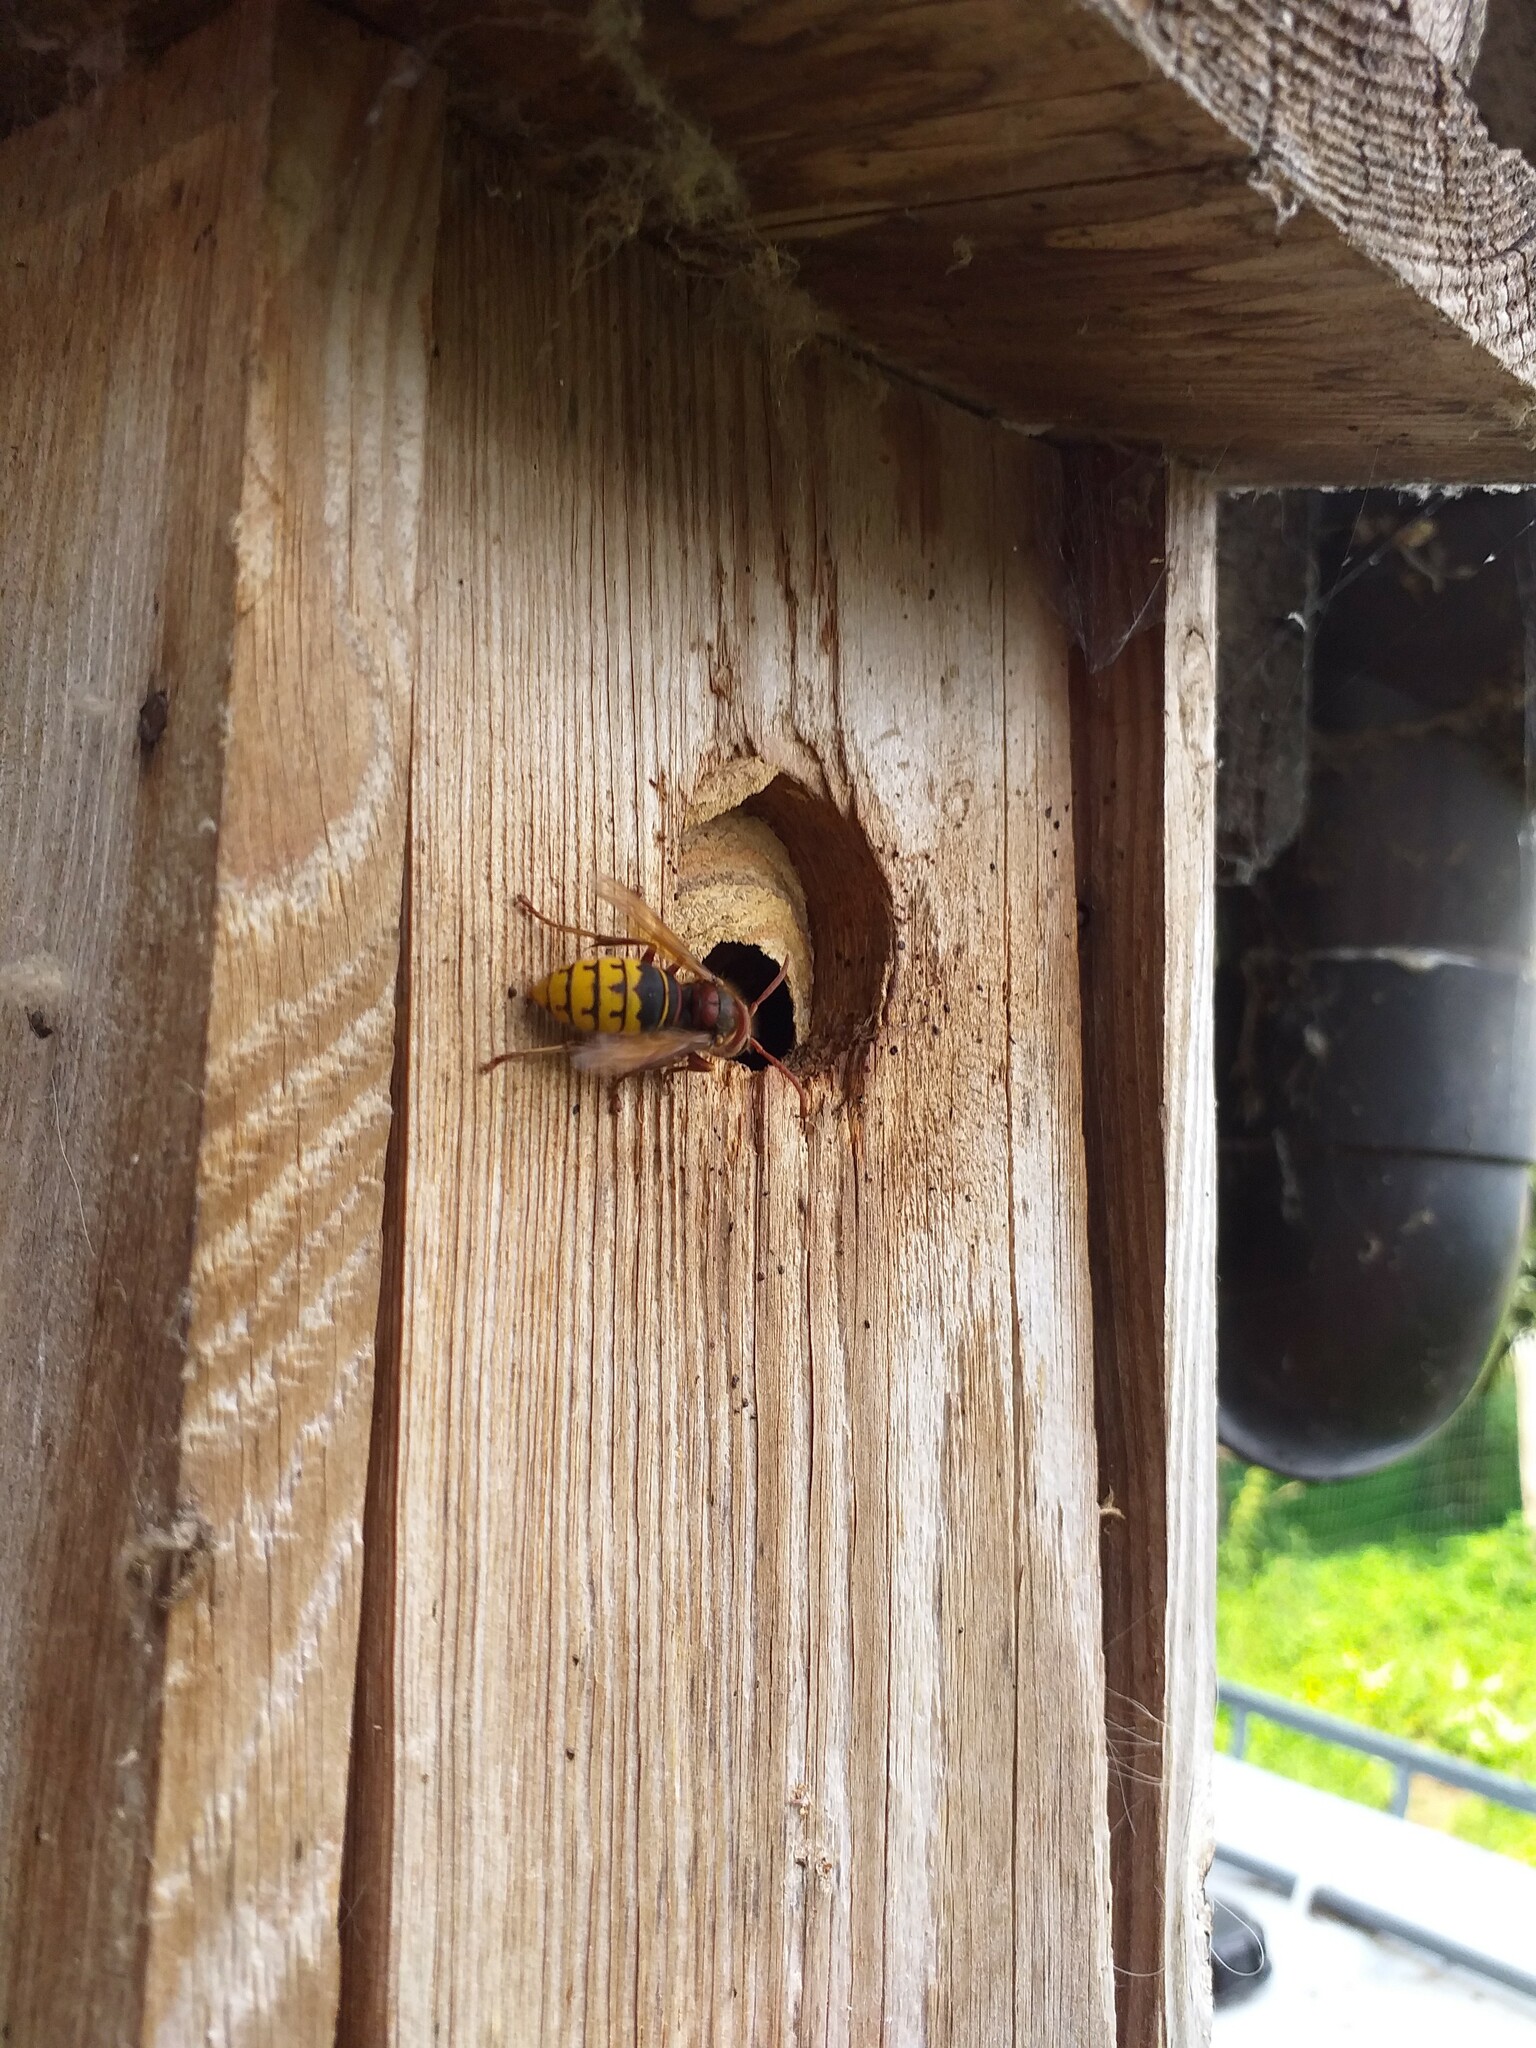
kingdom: Animalia
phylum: Arthropoda
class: Insecta
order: Hymenoptera
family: Vespidae
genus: Vespa
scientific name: Vespa crabro
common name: Hornet
